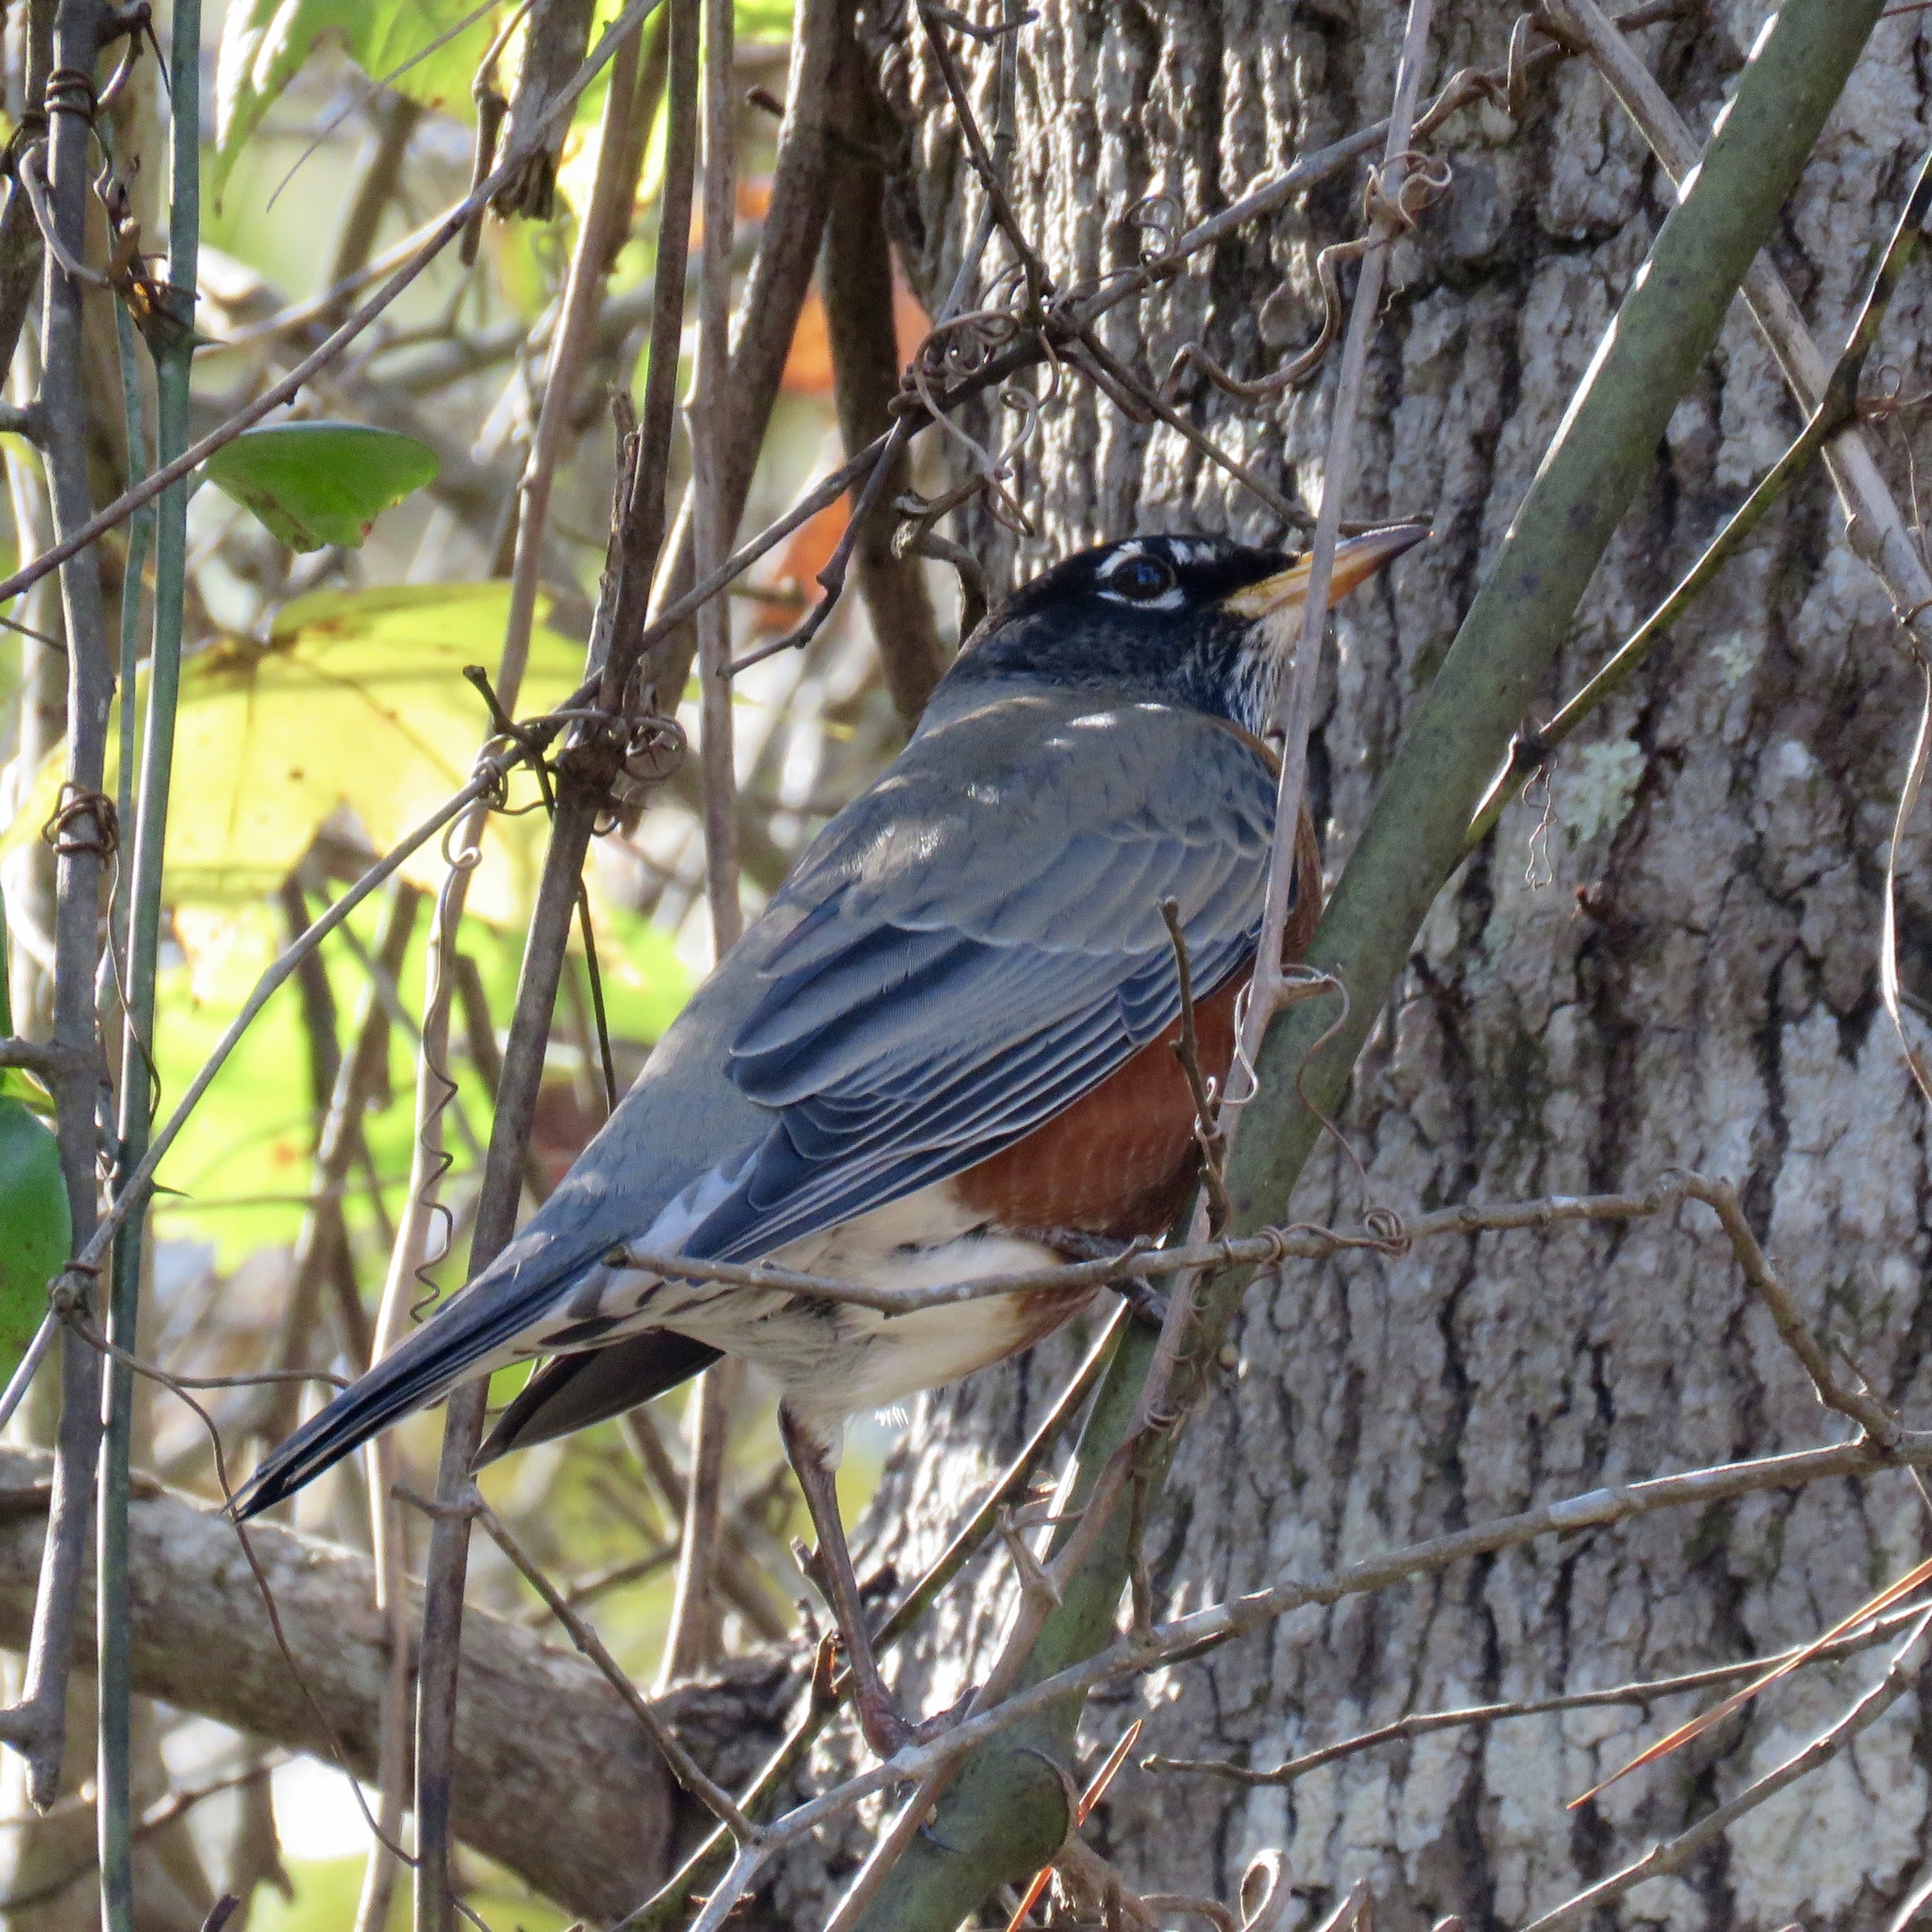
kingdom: Animalia
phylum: Chordata
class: Aves
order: Passeriformes
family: Turdidae
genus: Turdus
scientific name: Turdus migratorius
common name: American robin
